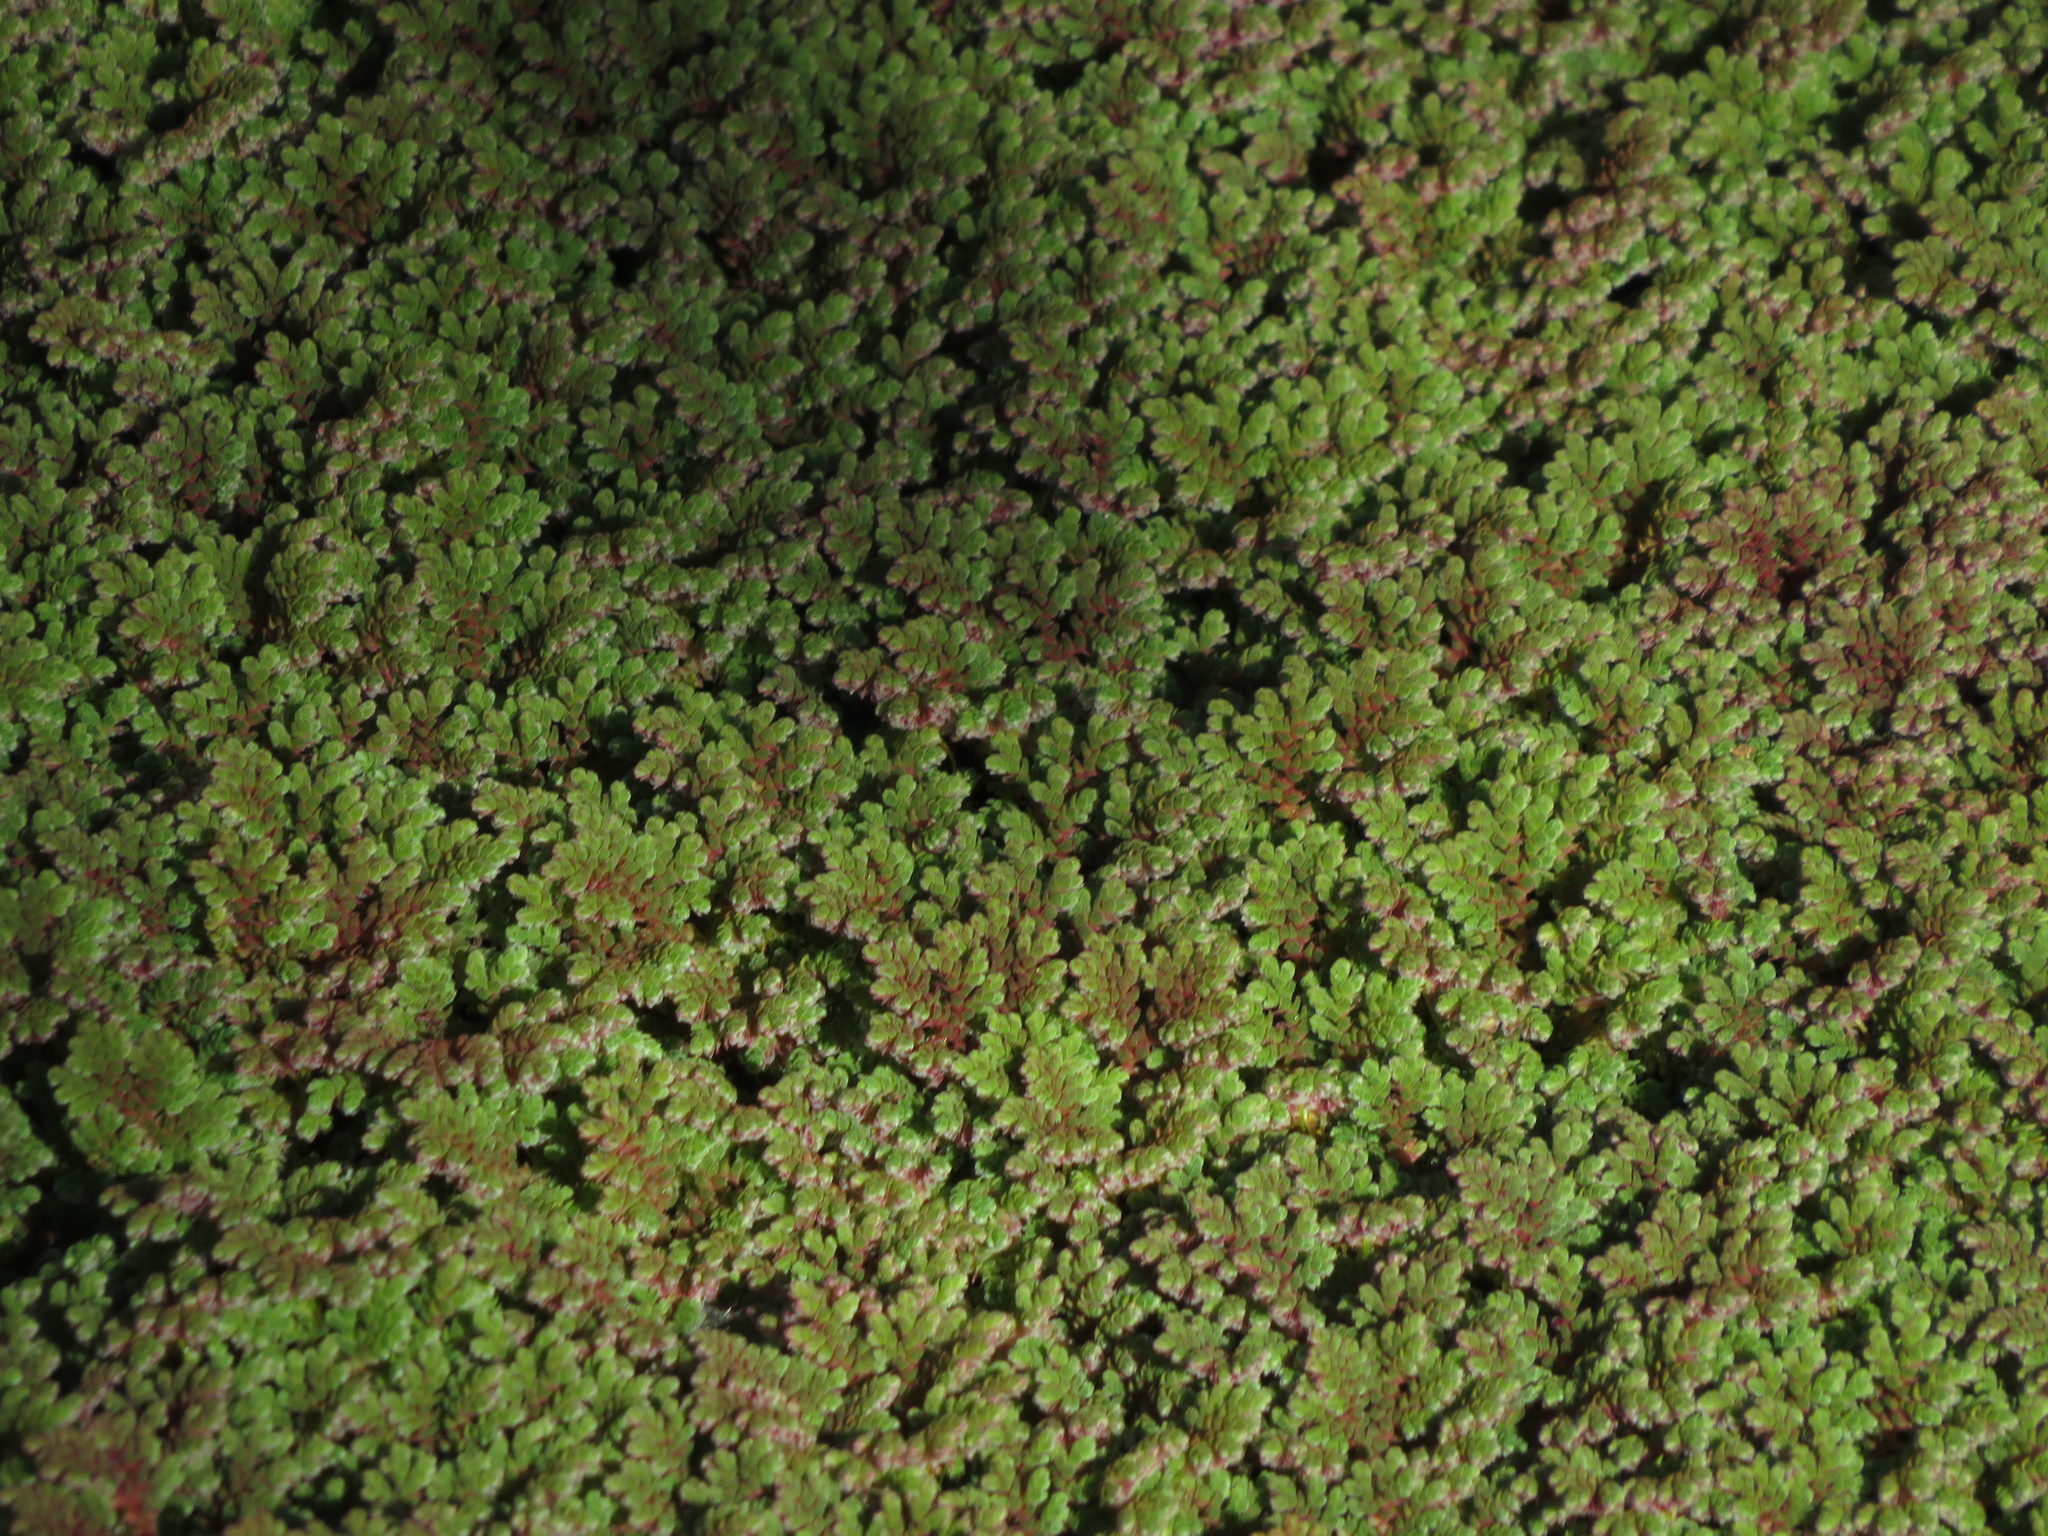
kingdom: Plantae
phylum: Tracheophyta
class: Polypodiopsida
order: Salviniales
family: Salviniaceae
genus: Azolla
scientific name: Azolla filiculoides
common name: Water fern
